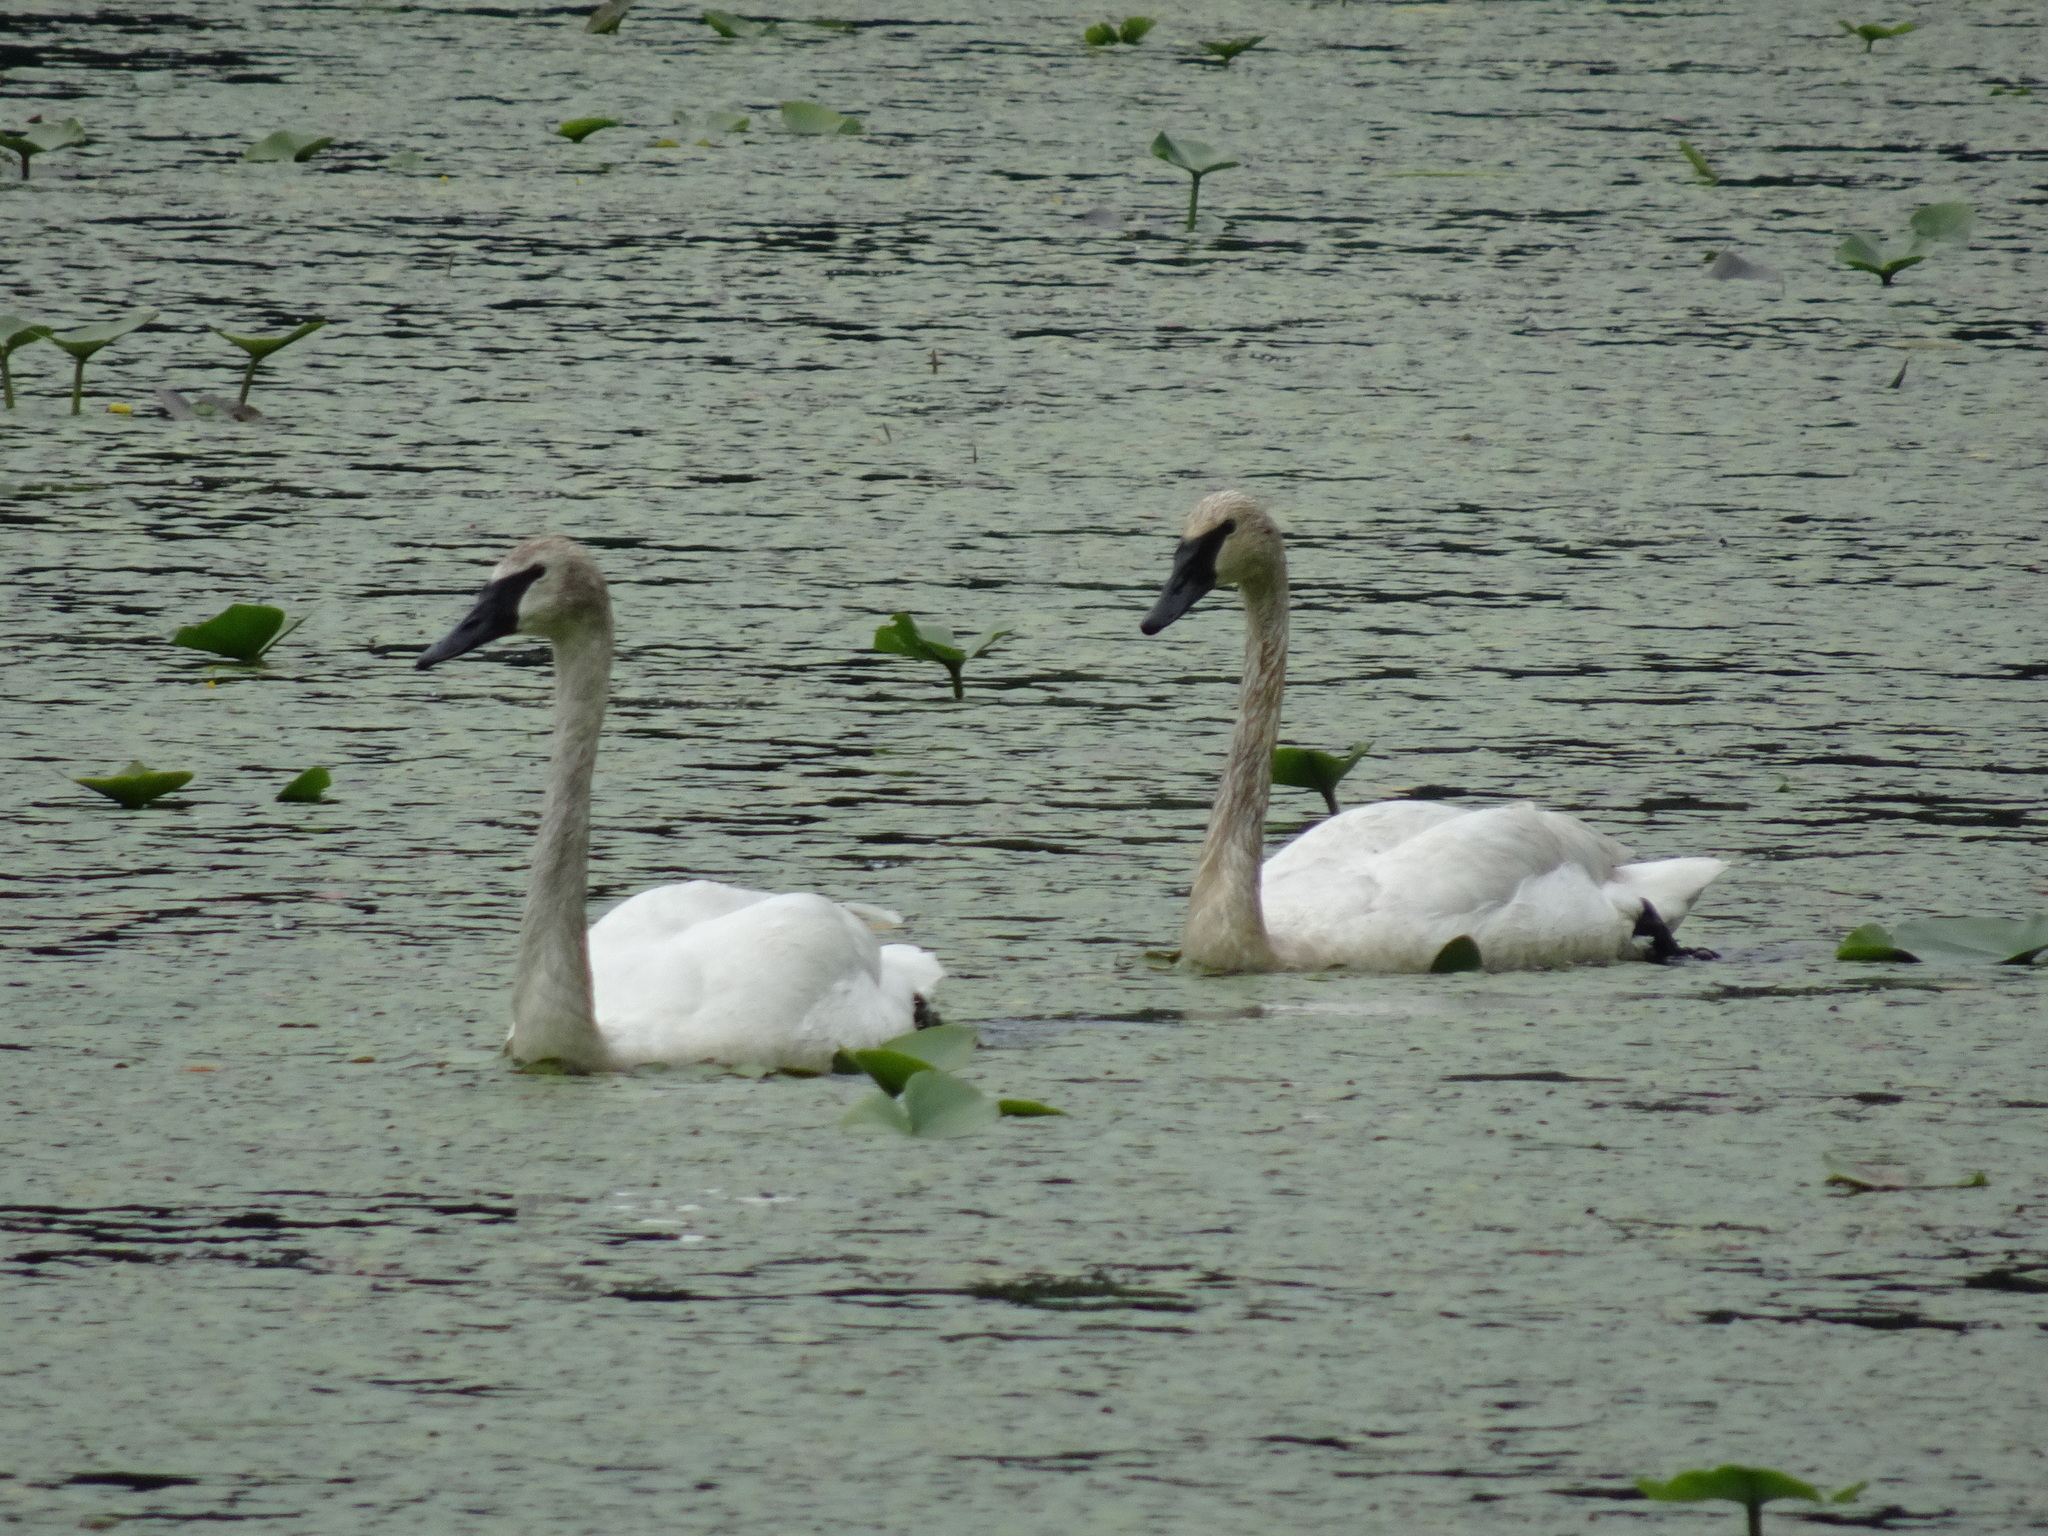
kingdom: Animalia
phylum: Chordata
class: Aves
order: Anseriformes
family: Anatidae
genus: Cygnus
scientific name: Cygnus buccinator
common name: Trumpeter swan
